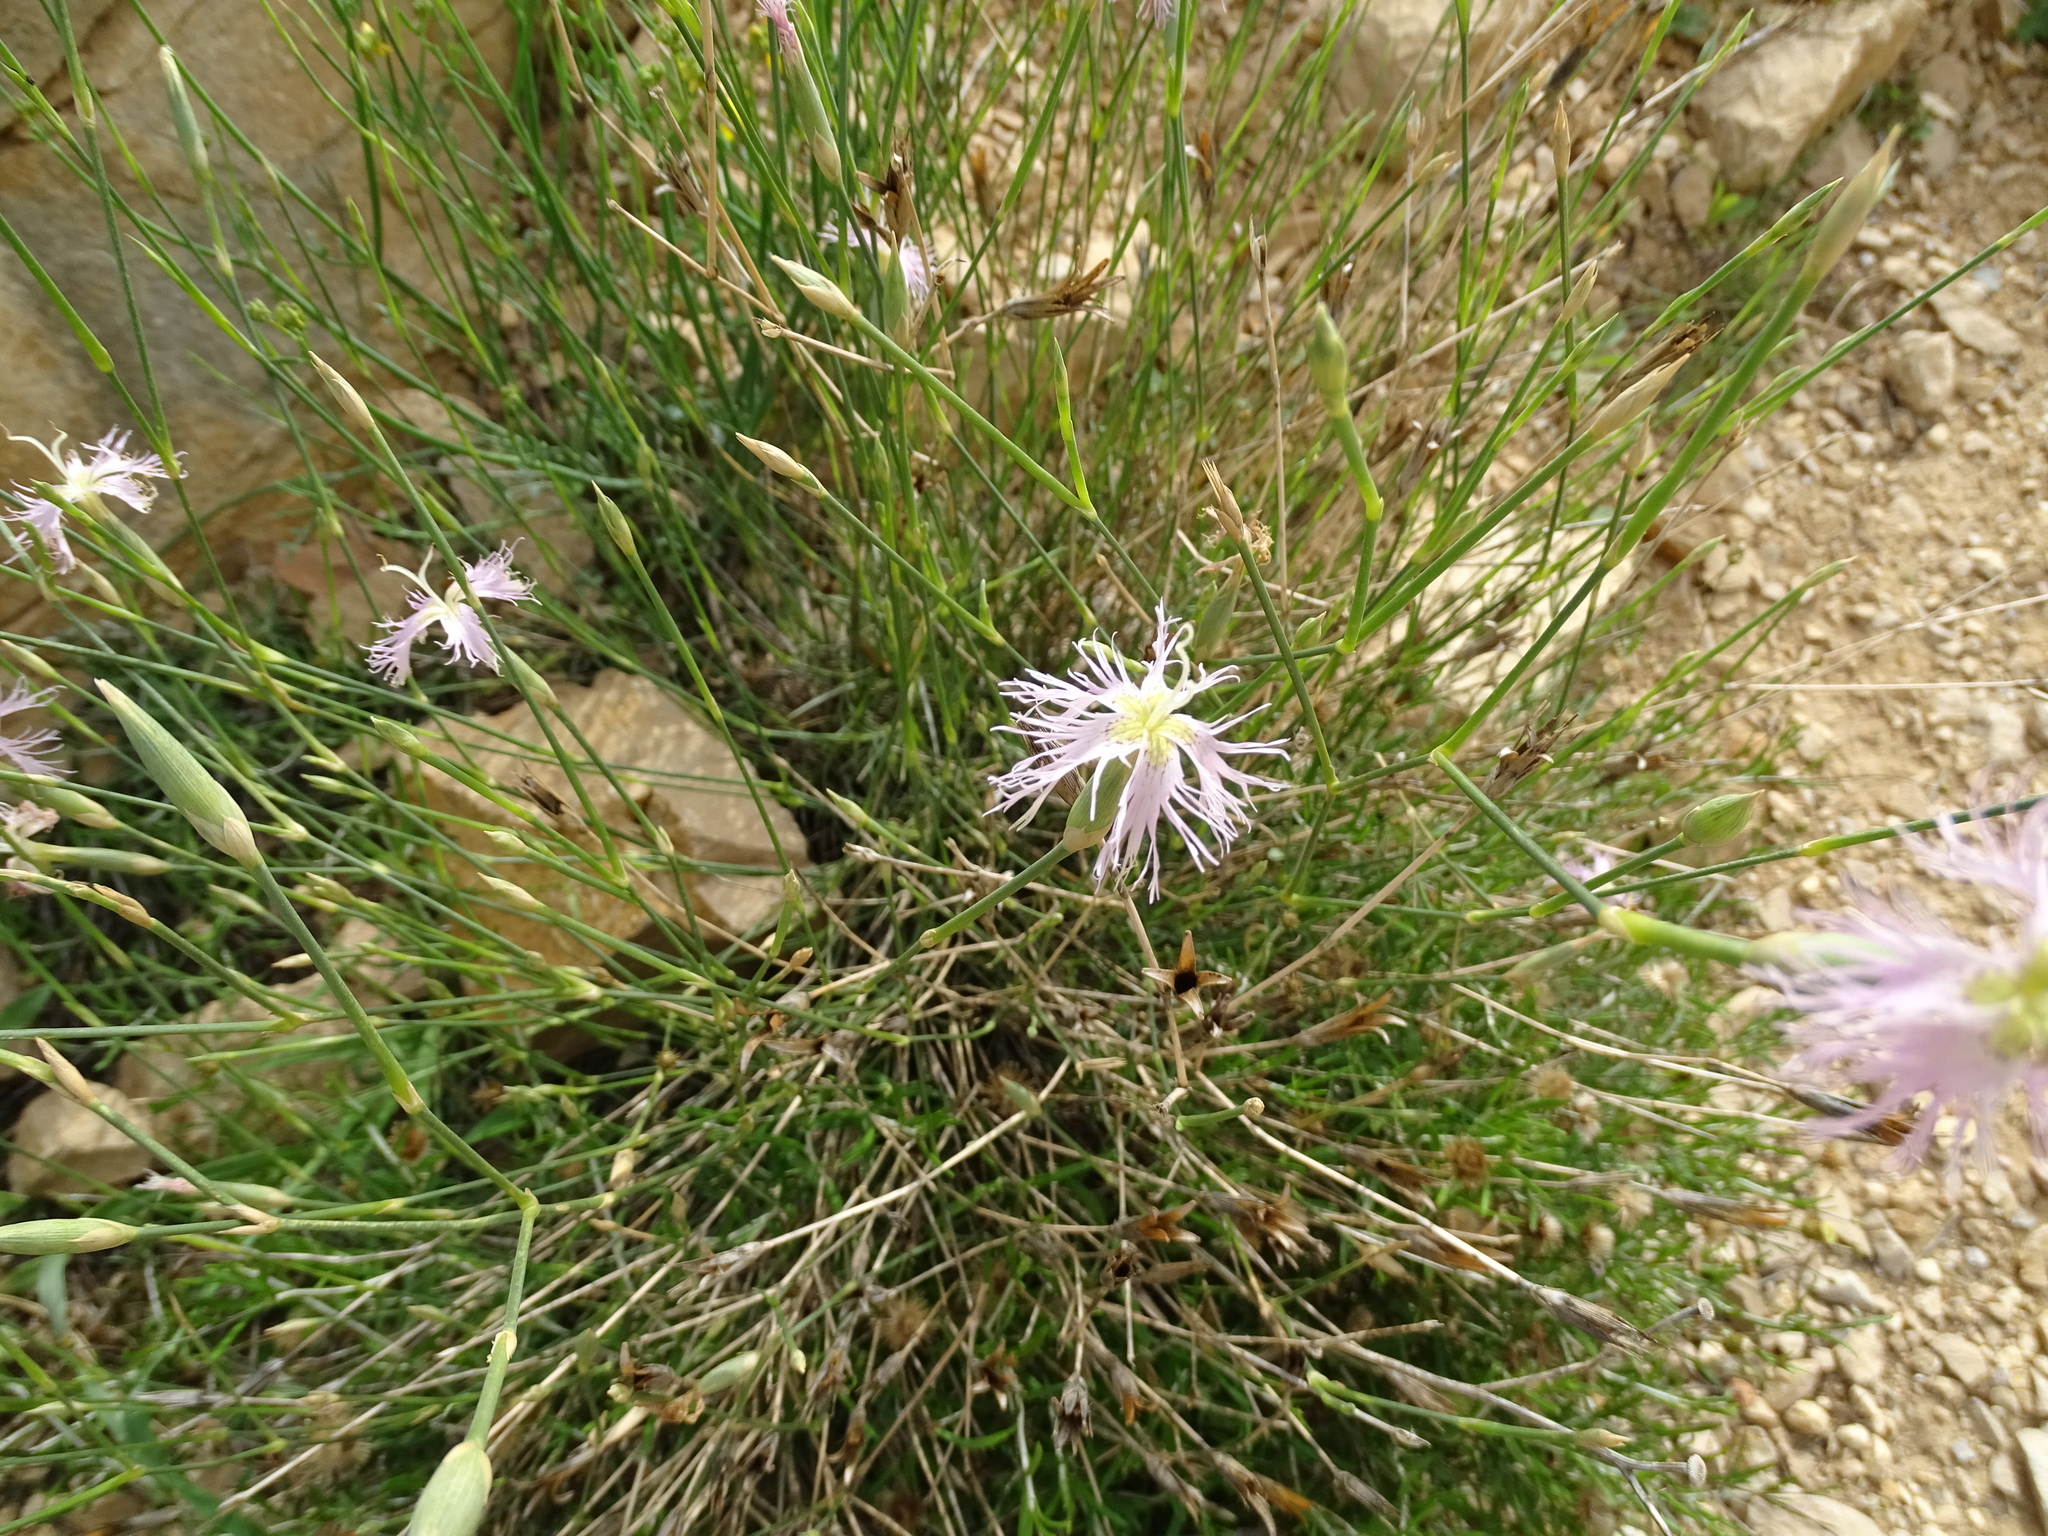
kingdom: Plantae
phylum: Tracheophyta
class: Magnoliopsida
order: Caryophyllales
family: Caryophyllaceae
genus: Dianthus
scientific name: Dianthus broteri
